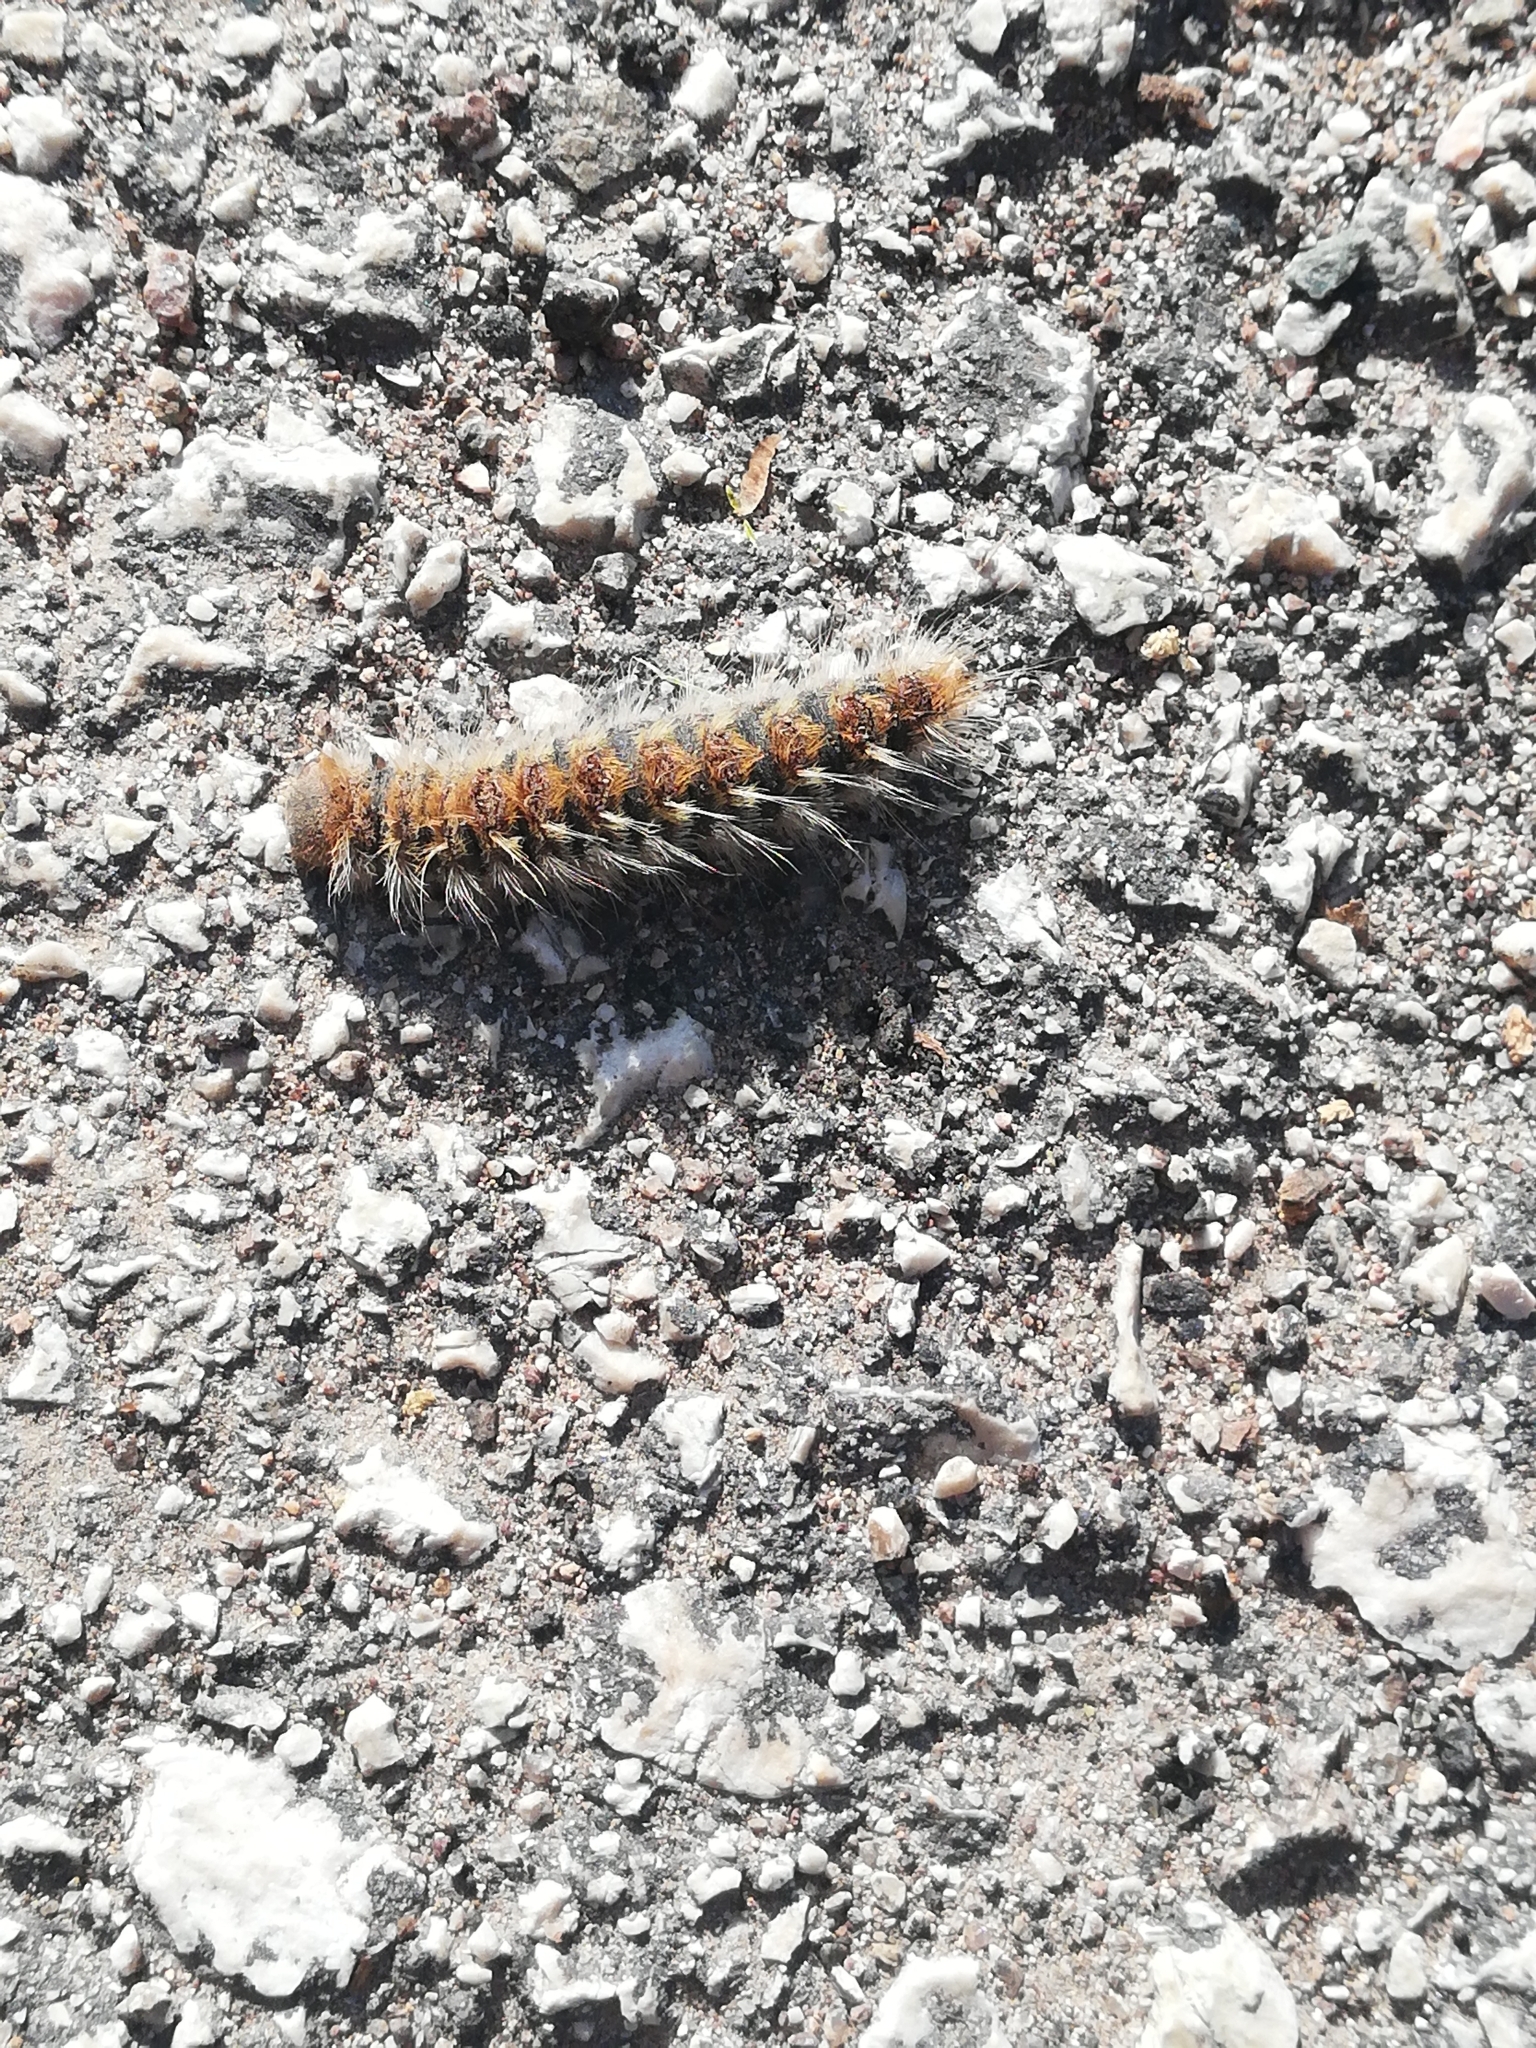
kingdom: Animalia
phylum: Arthropoda
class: Insecta
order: Lepidoptera
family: Notodontidae
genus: Thaumetopoea
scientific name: Thaumetopoea pityocampa
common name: Pine processionary
